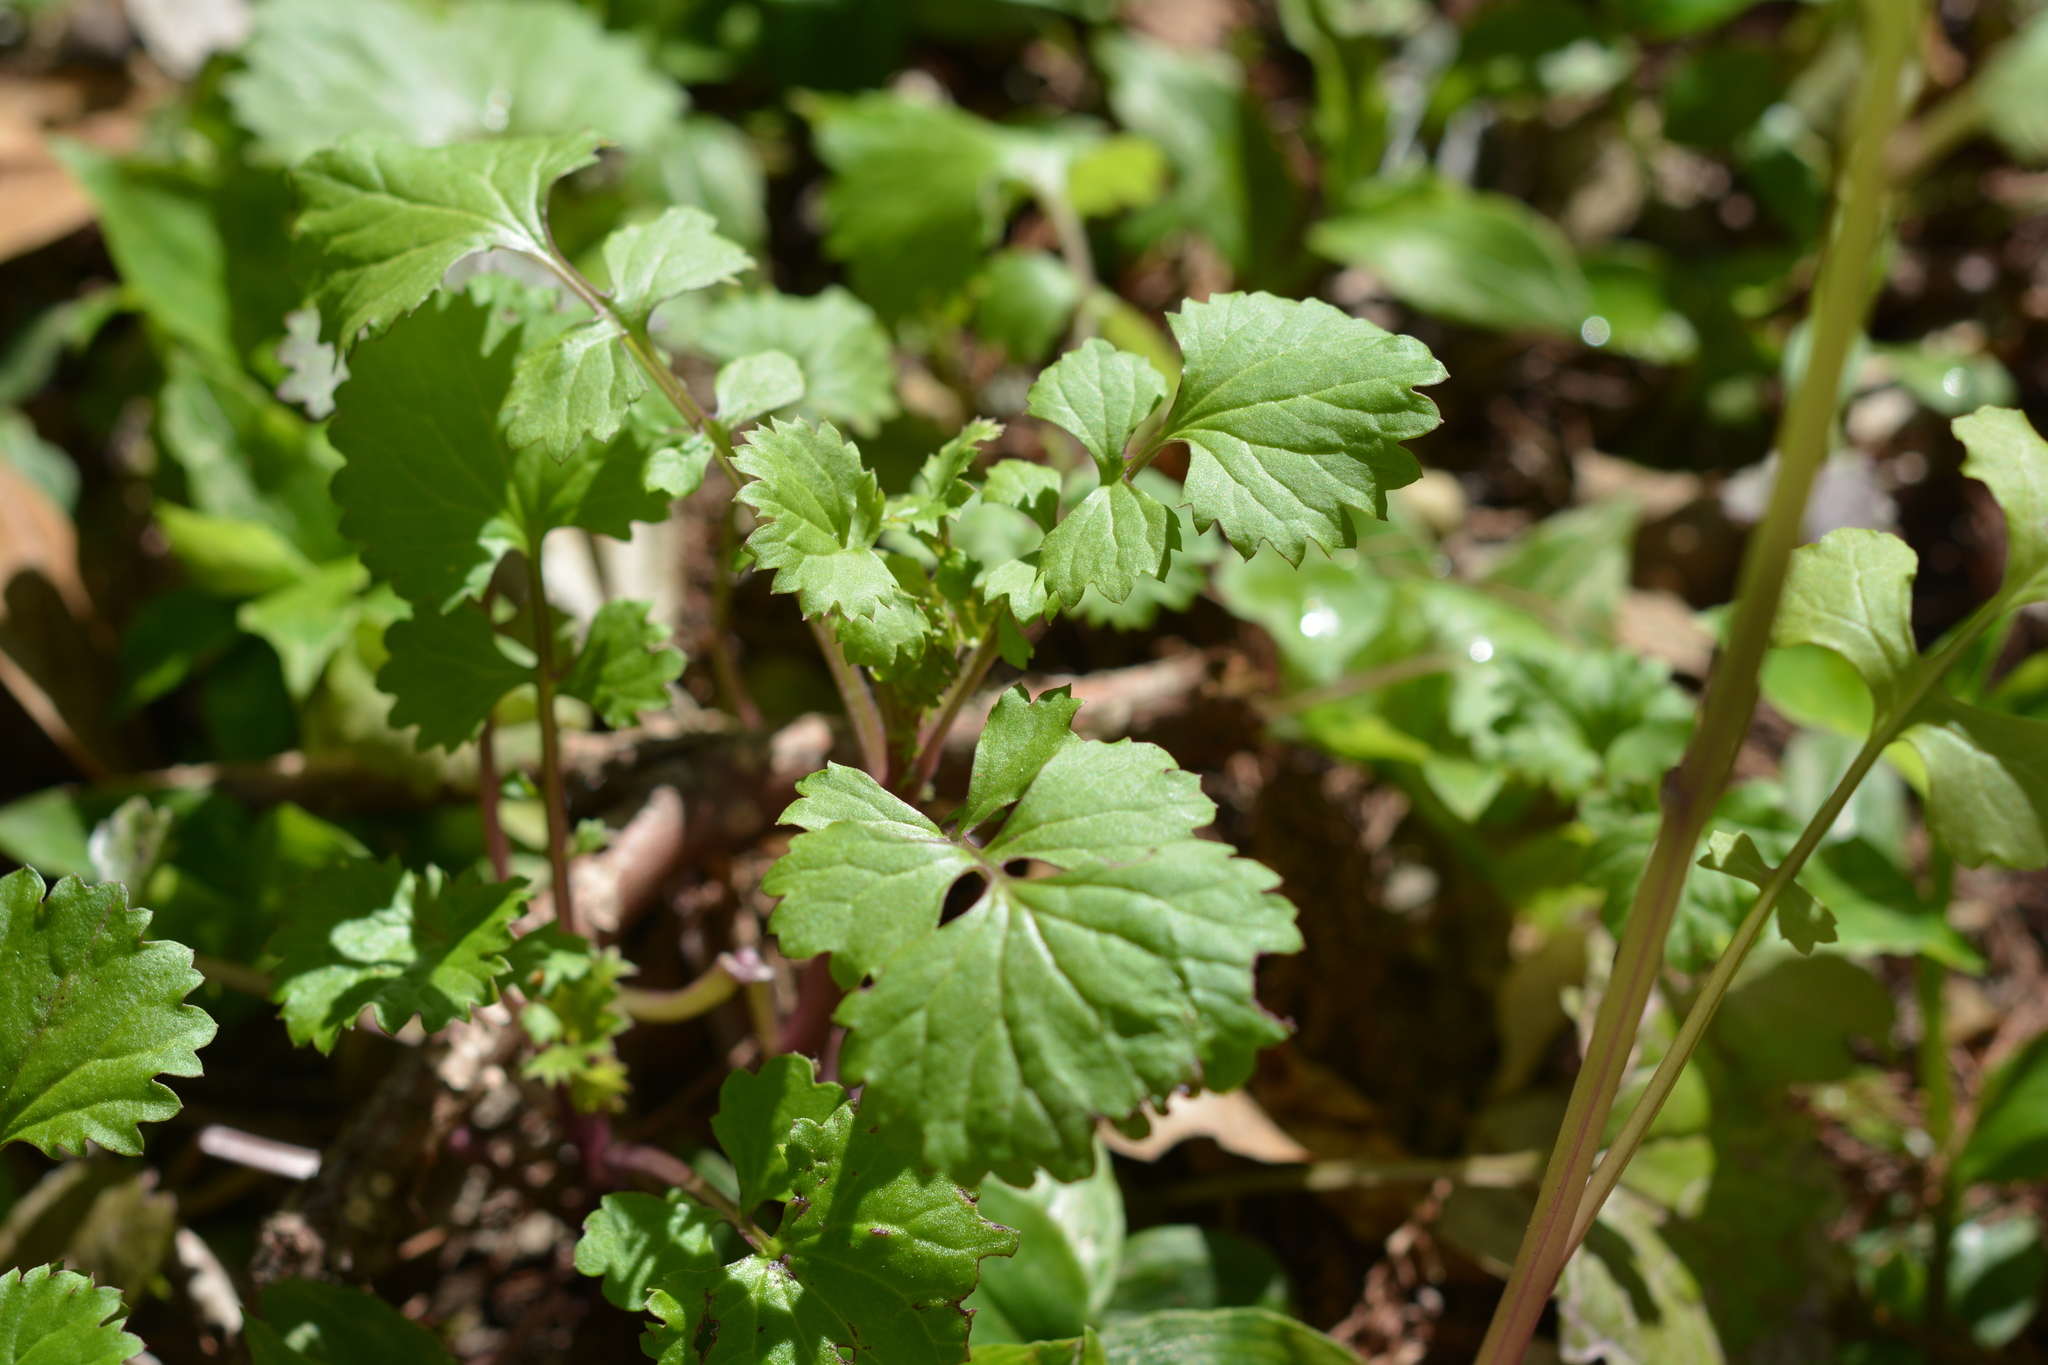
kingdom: Plantae
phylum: Tracheophyta
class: Magnoliopsida
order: Asterales
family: Asteraceae
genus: Packera
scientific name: Packera glabella
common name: Butterweed
